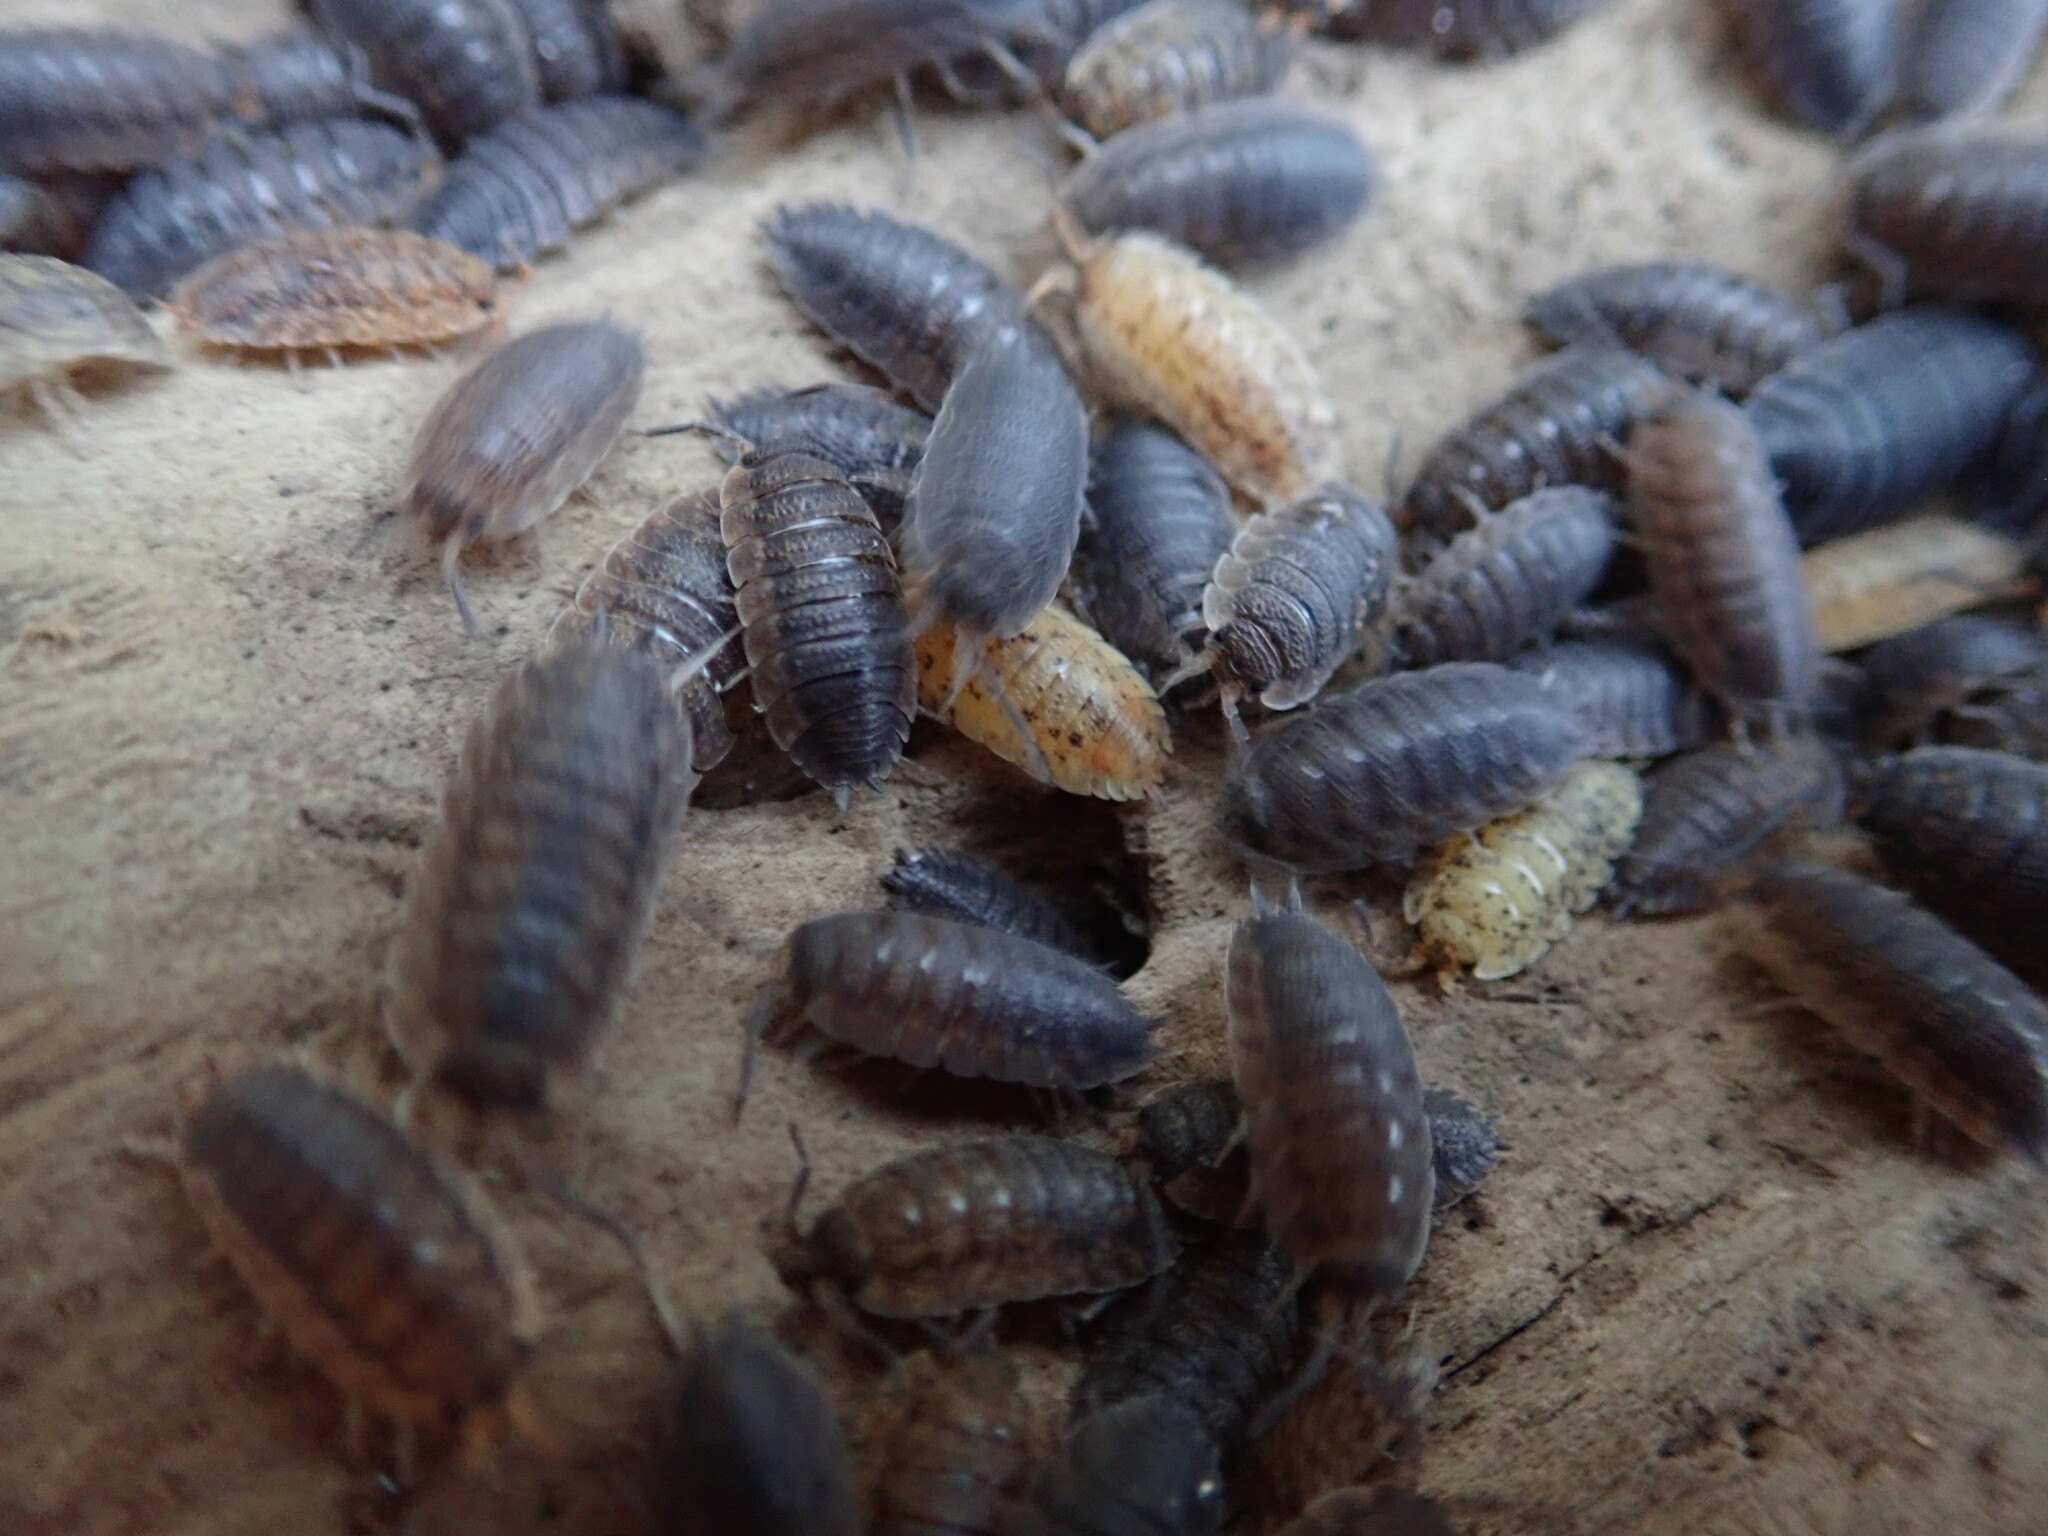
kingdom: Animalia
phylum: Arthropoda
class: Malacostraca
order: Isopoda
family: Porcellionidae
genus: Porcellio
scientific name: Porcellio scaber
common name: Common rough woodlouse
